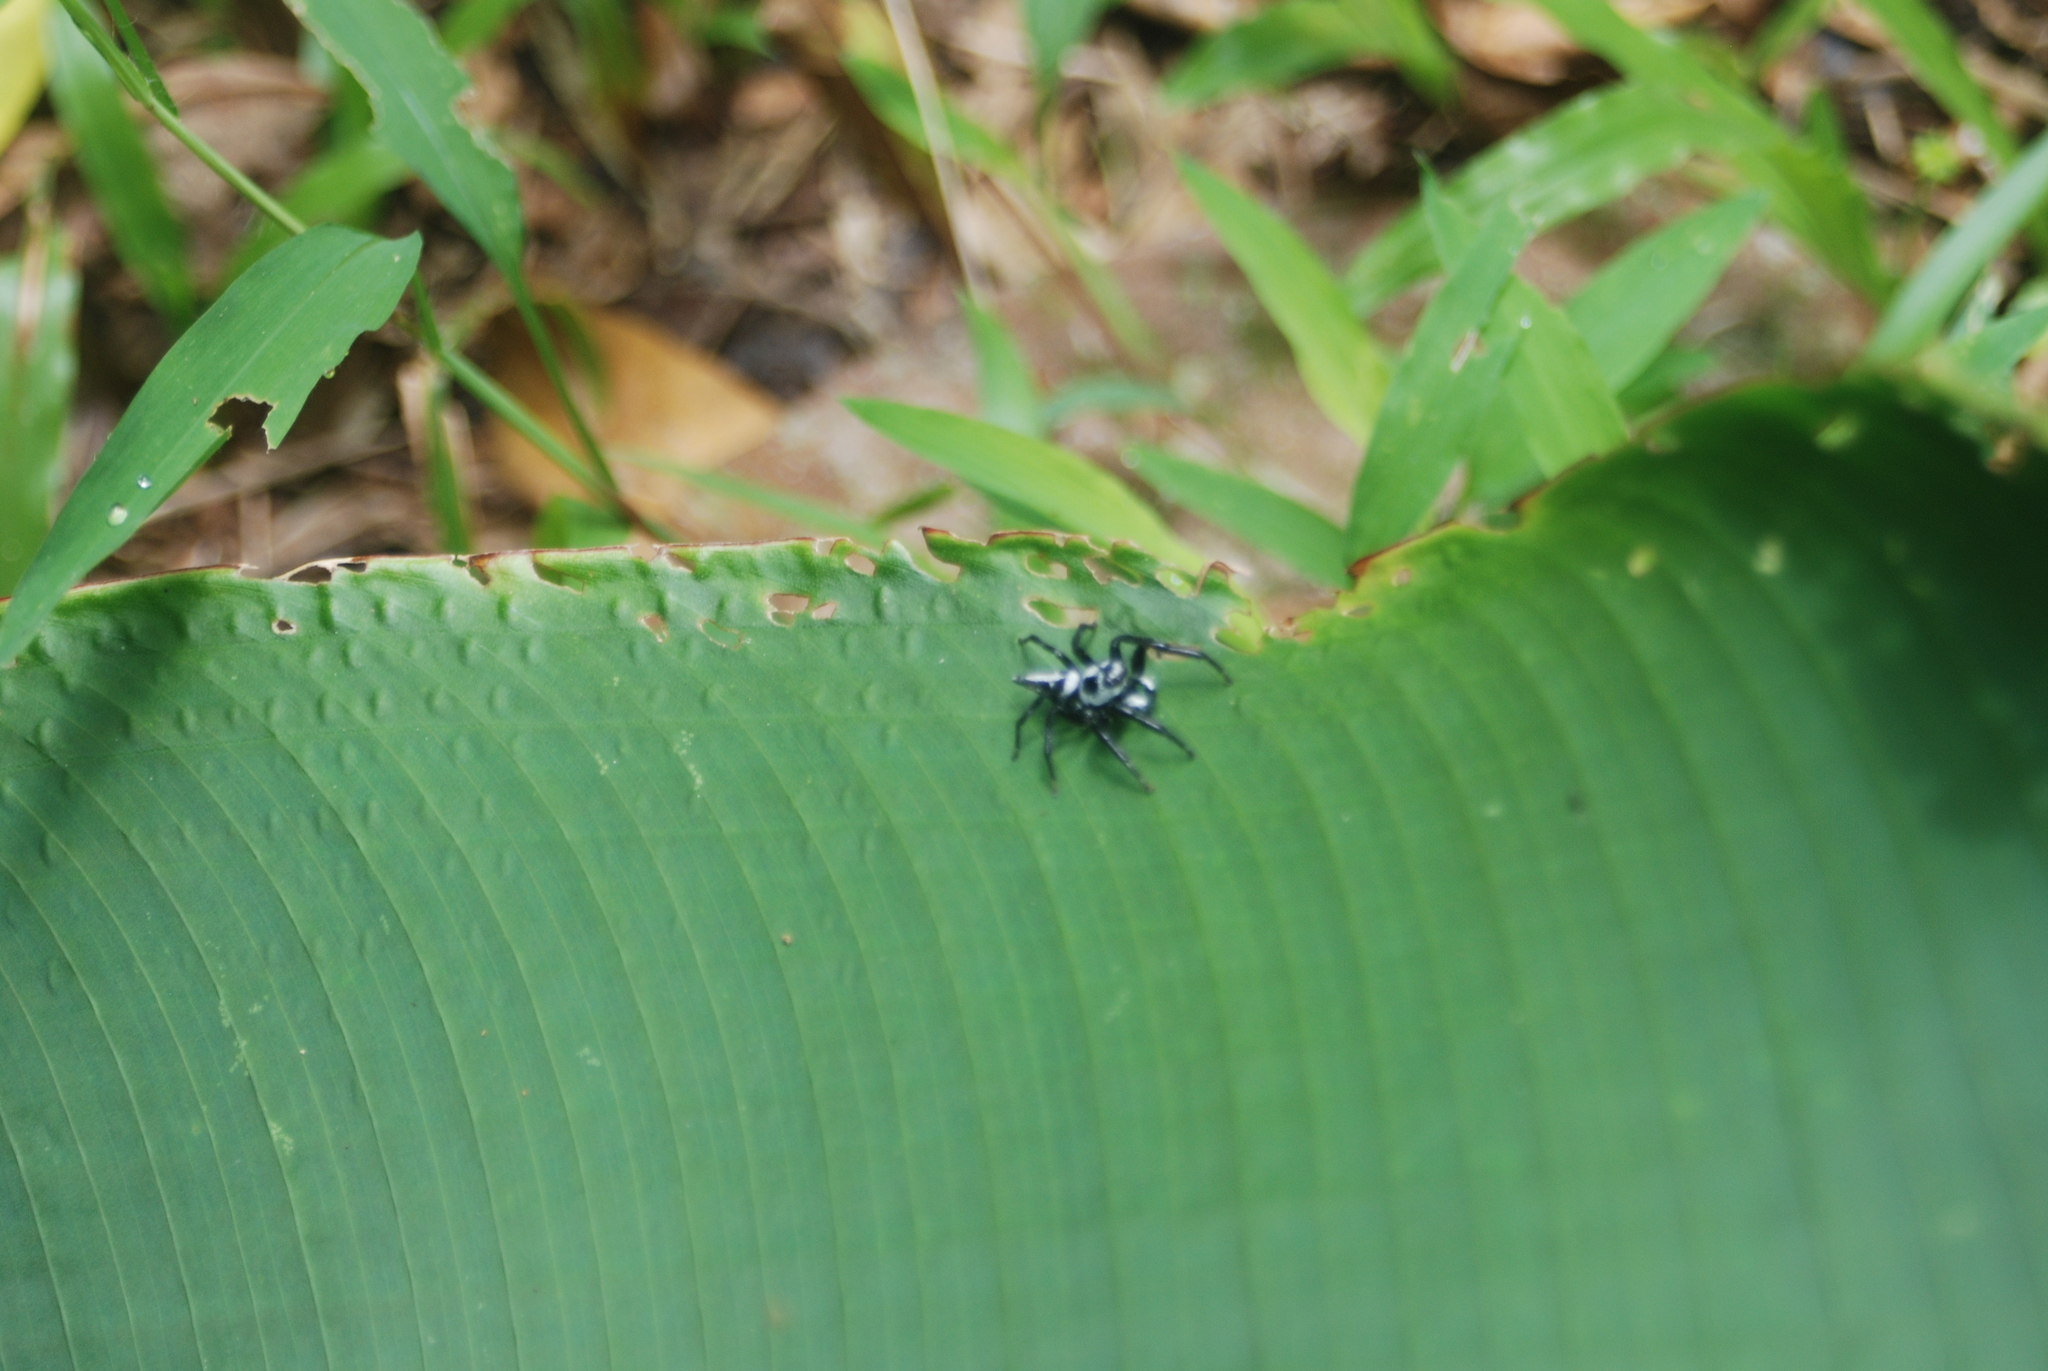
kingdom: Animalia
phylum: Arthropoda
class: Arachnida
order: Araneae
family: Salticidae
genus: Phiale
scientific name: Phiale formosa
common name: Jumping spiders
